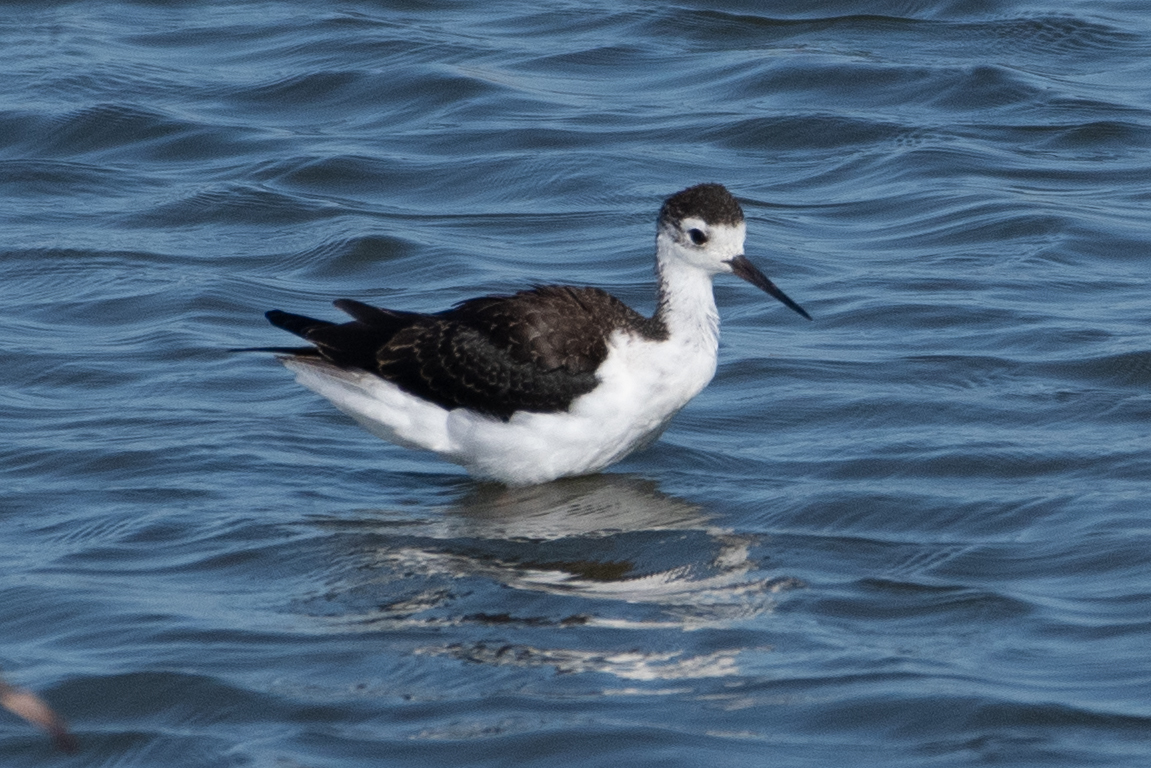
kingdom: Animalia
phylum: Chordata
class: Aves
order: Charadriiformes
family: Recurvirostridae
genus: Himantopus
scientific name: Himantopus mexicanus
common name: Black-necked stilt
